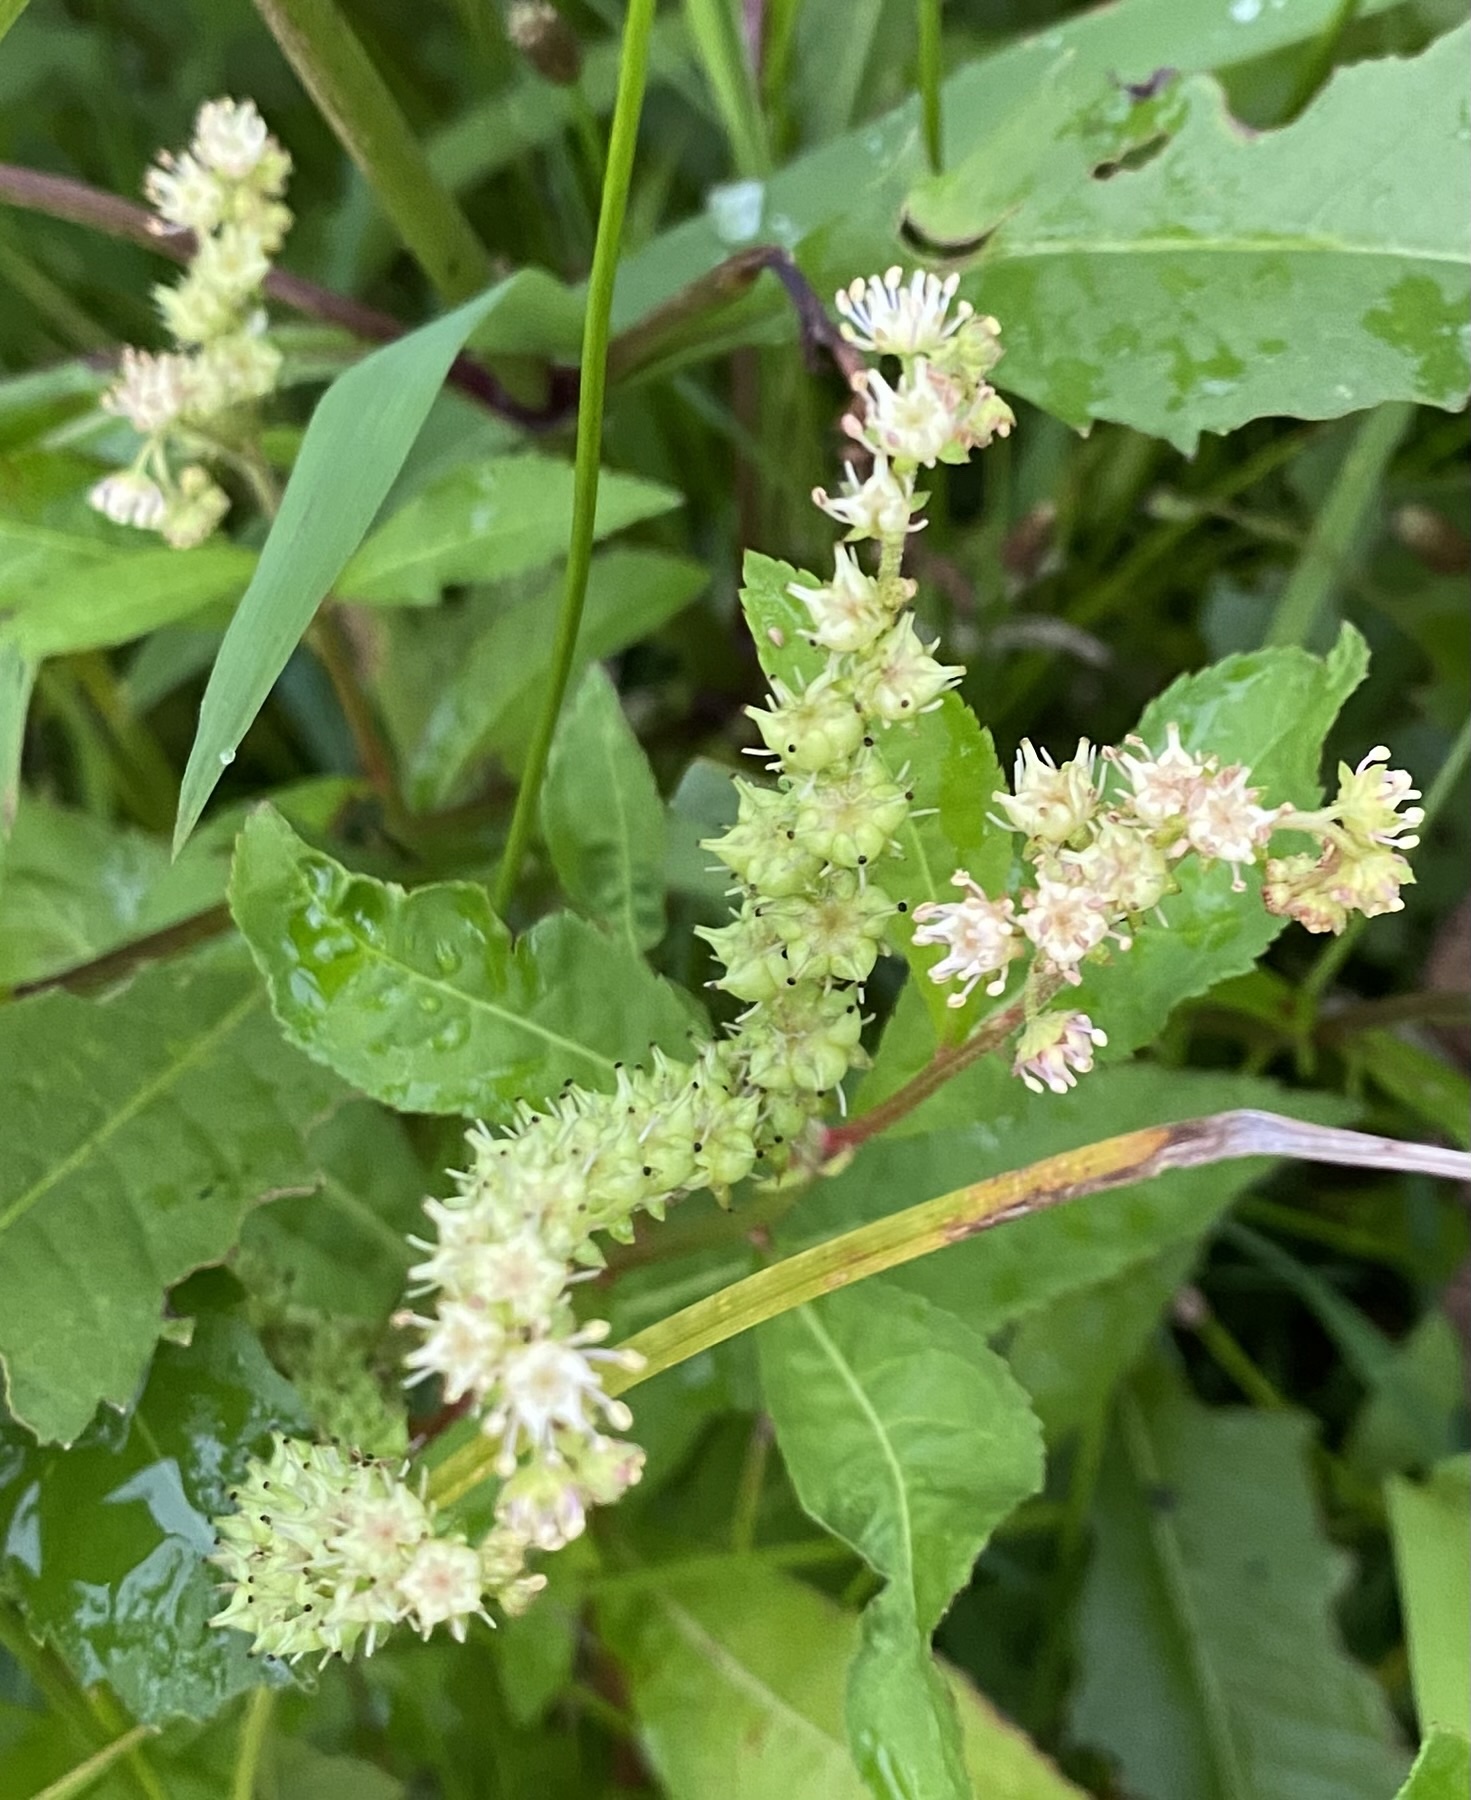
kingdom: Plantae
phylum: Tracheophyta
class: Magnoliopsida
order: Saxifragales
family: Penthoraceae
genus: Penthorum
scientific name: Penthorum sedoides
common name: Ditch stonecrop
